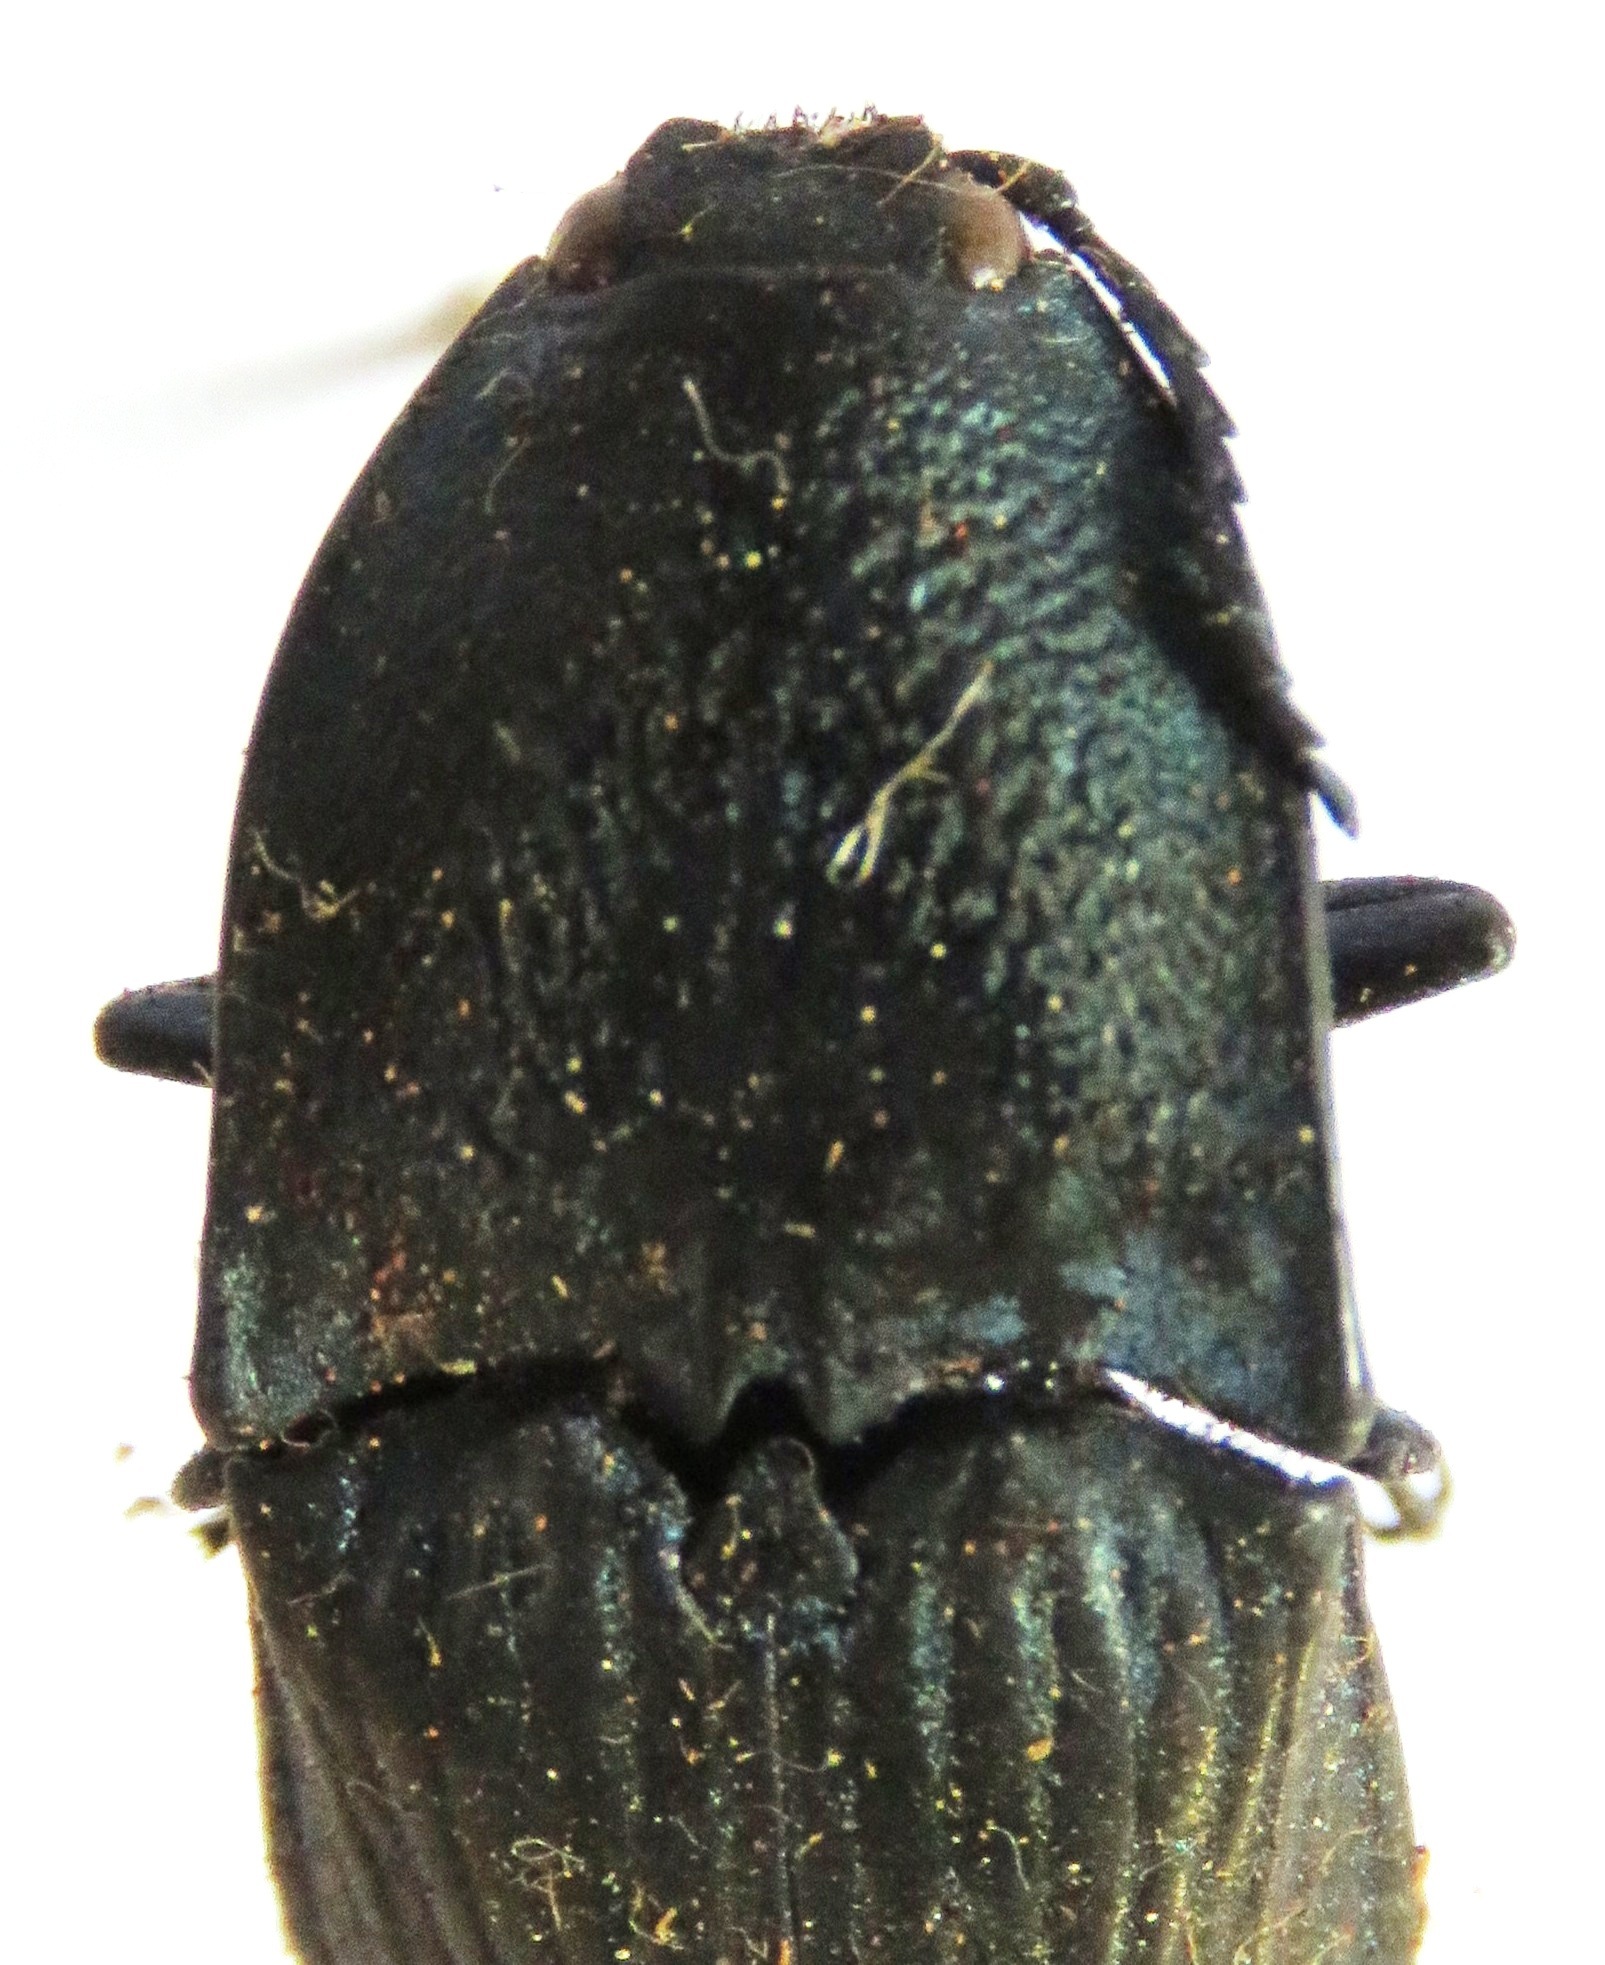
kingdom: Animalia
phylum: Arthropoda
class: Insecta
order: Coleoptera
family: Elateridae
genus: Chalcolepidius
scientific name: Chalcolepidius lacordairei
